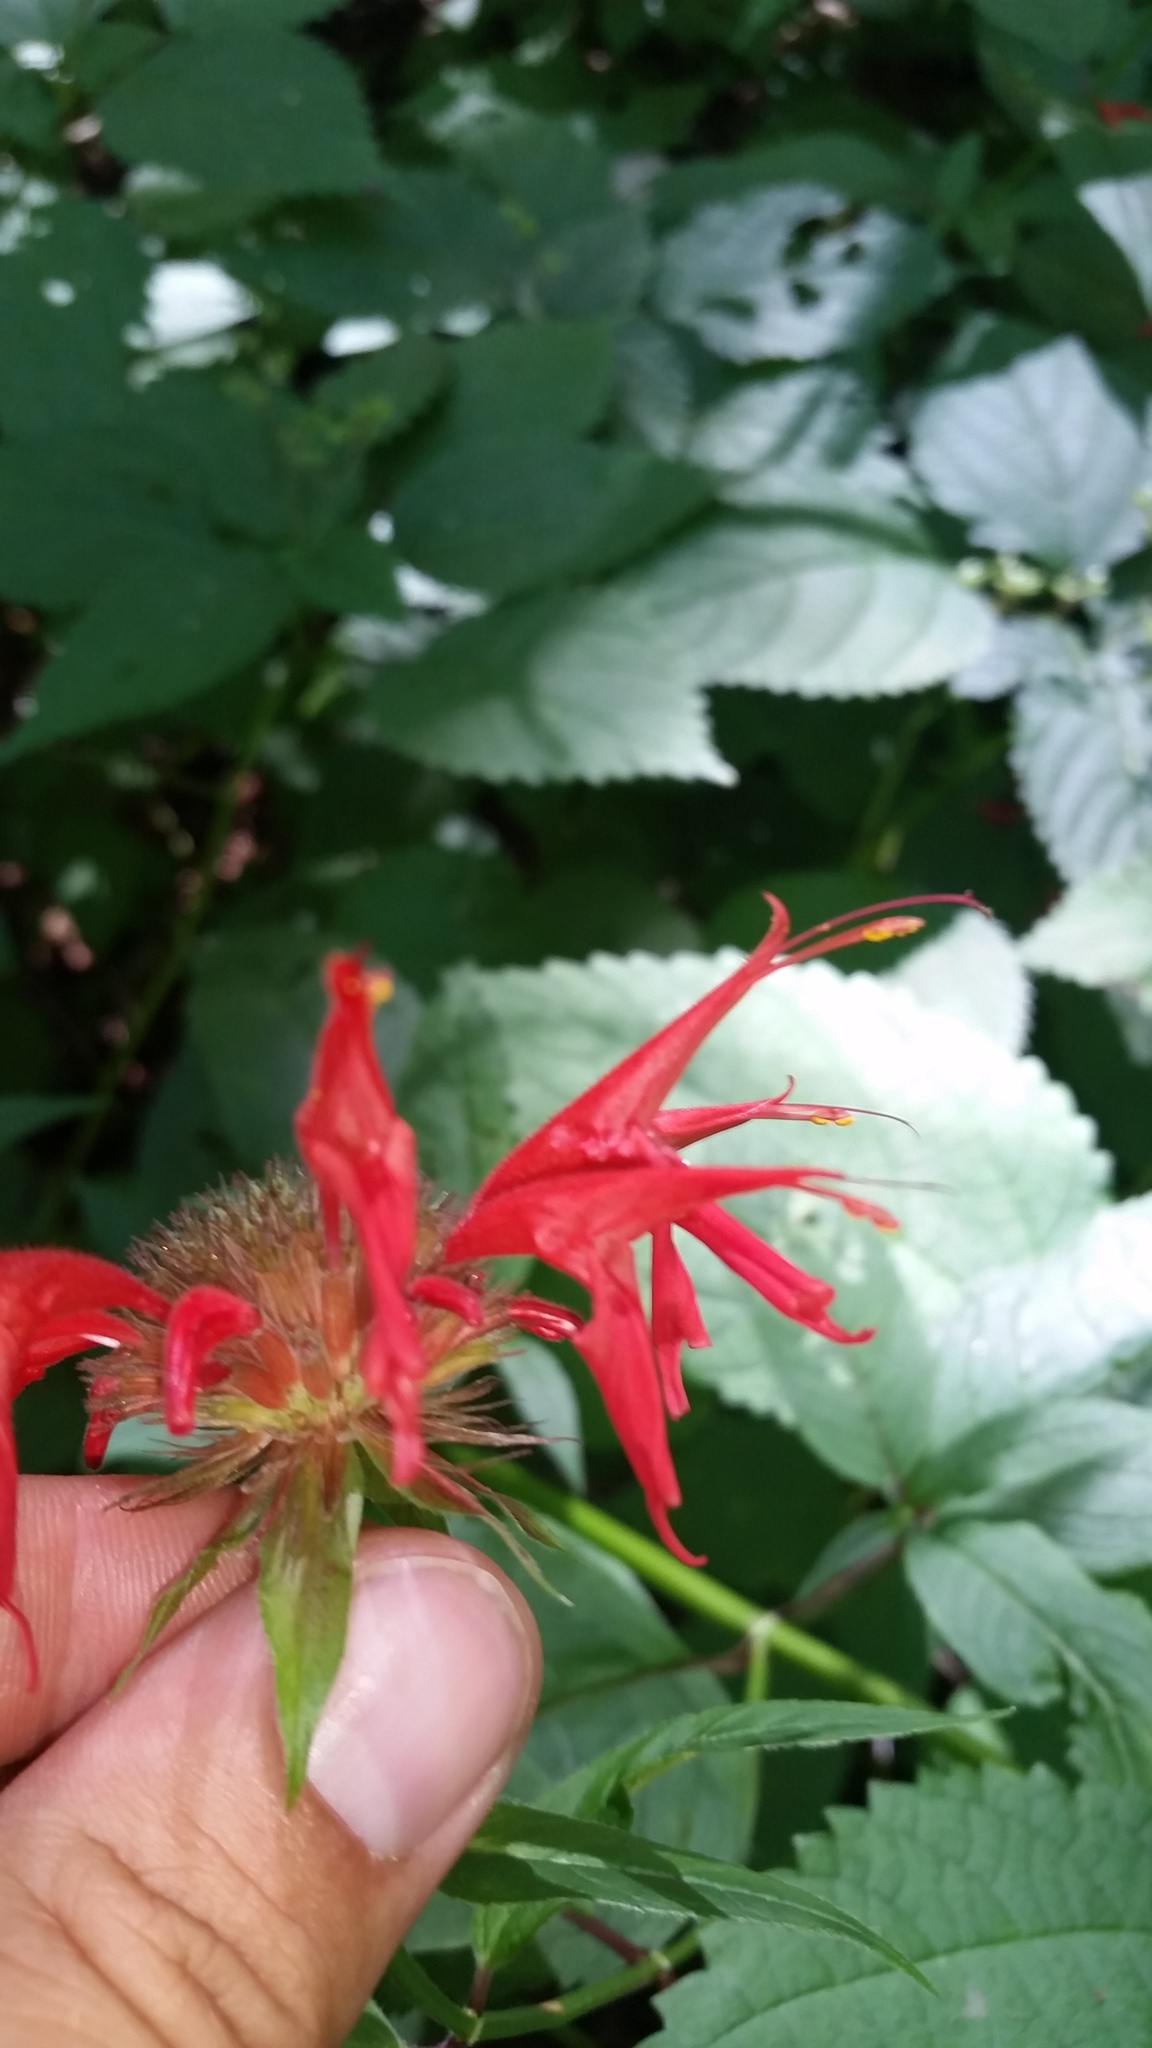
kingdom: Plantae
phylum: Tracheophyta
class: Magnoliopsida
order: Lamiales
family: Lamiaceae
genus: Monarda
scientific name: Monarda didyma
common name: Beebalm
